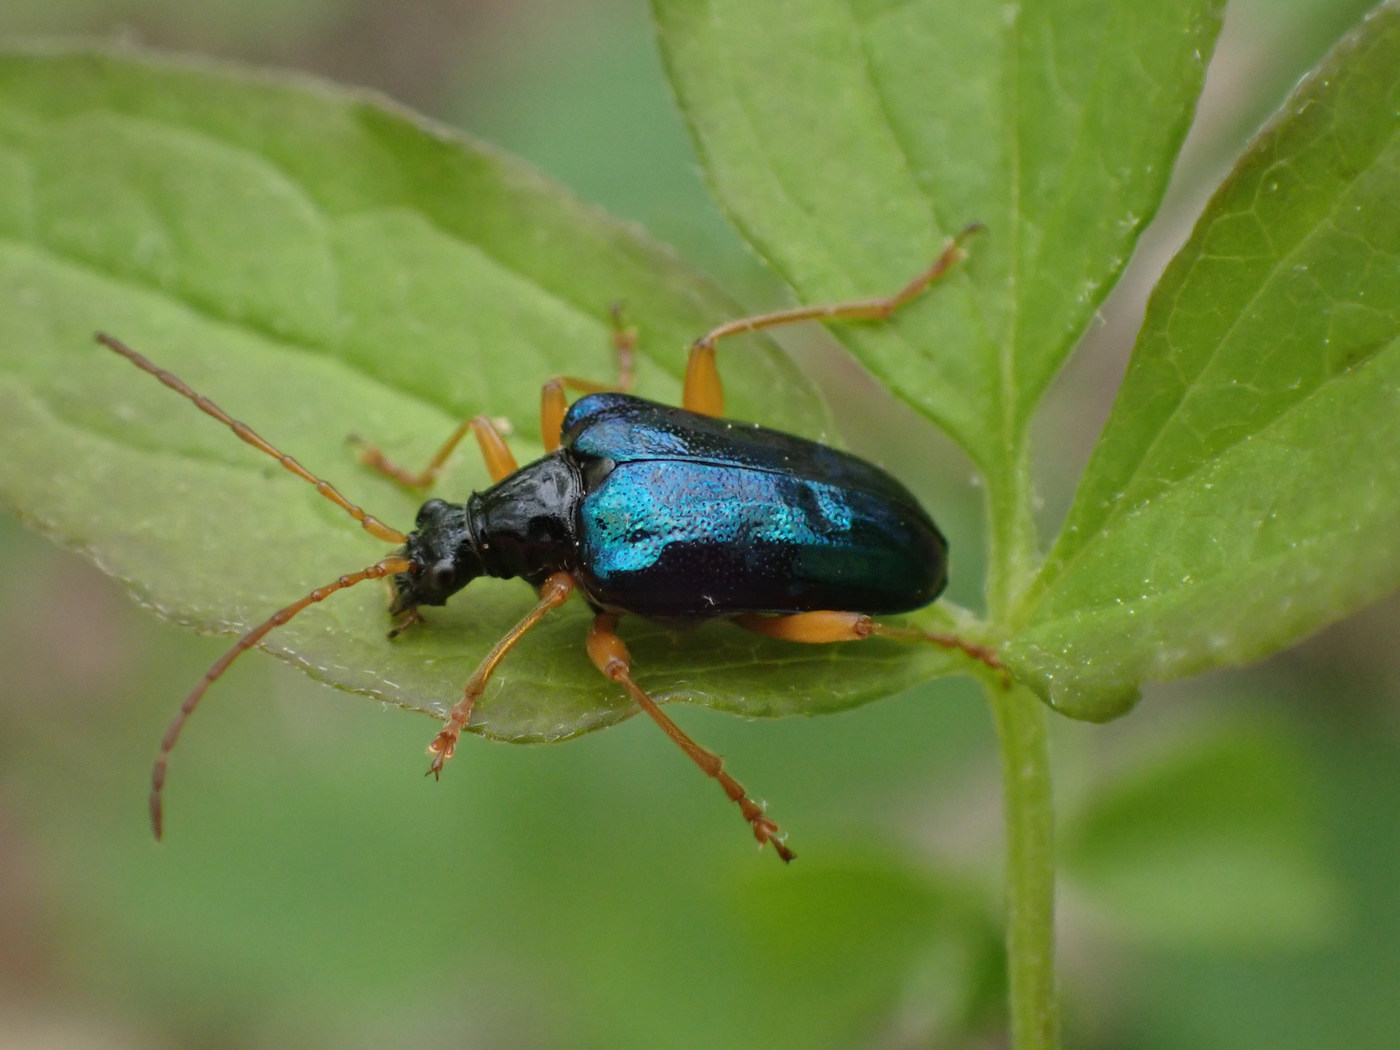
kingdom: Animalia
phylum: Arthropoda
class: Insecta
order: Coleoptera
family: Cerambycidae
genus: Gaurotes
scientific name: Gaurotes cyanipennis
